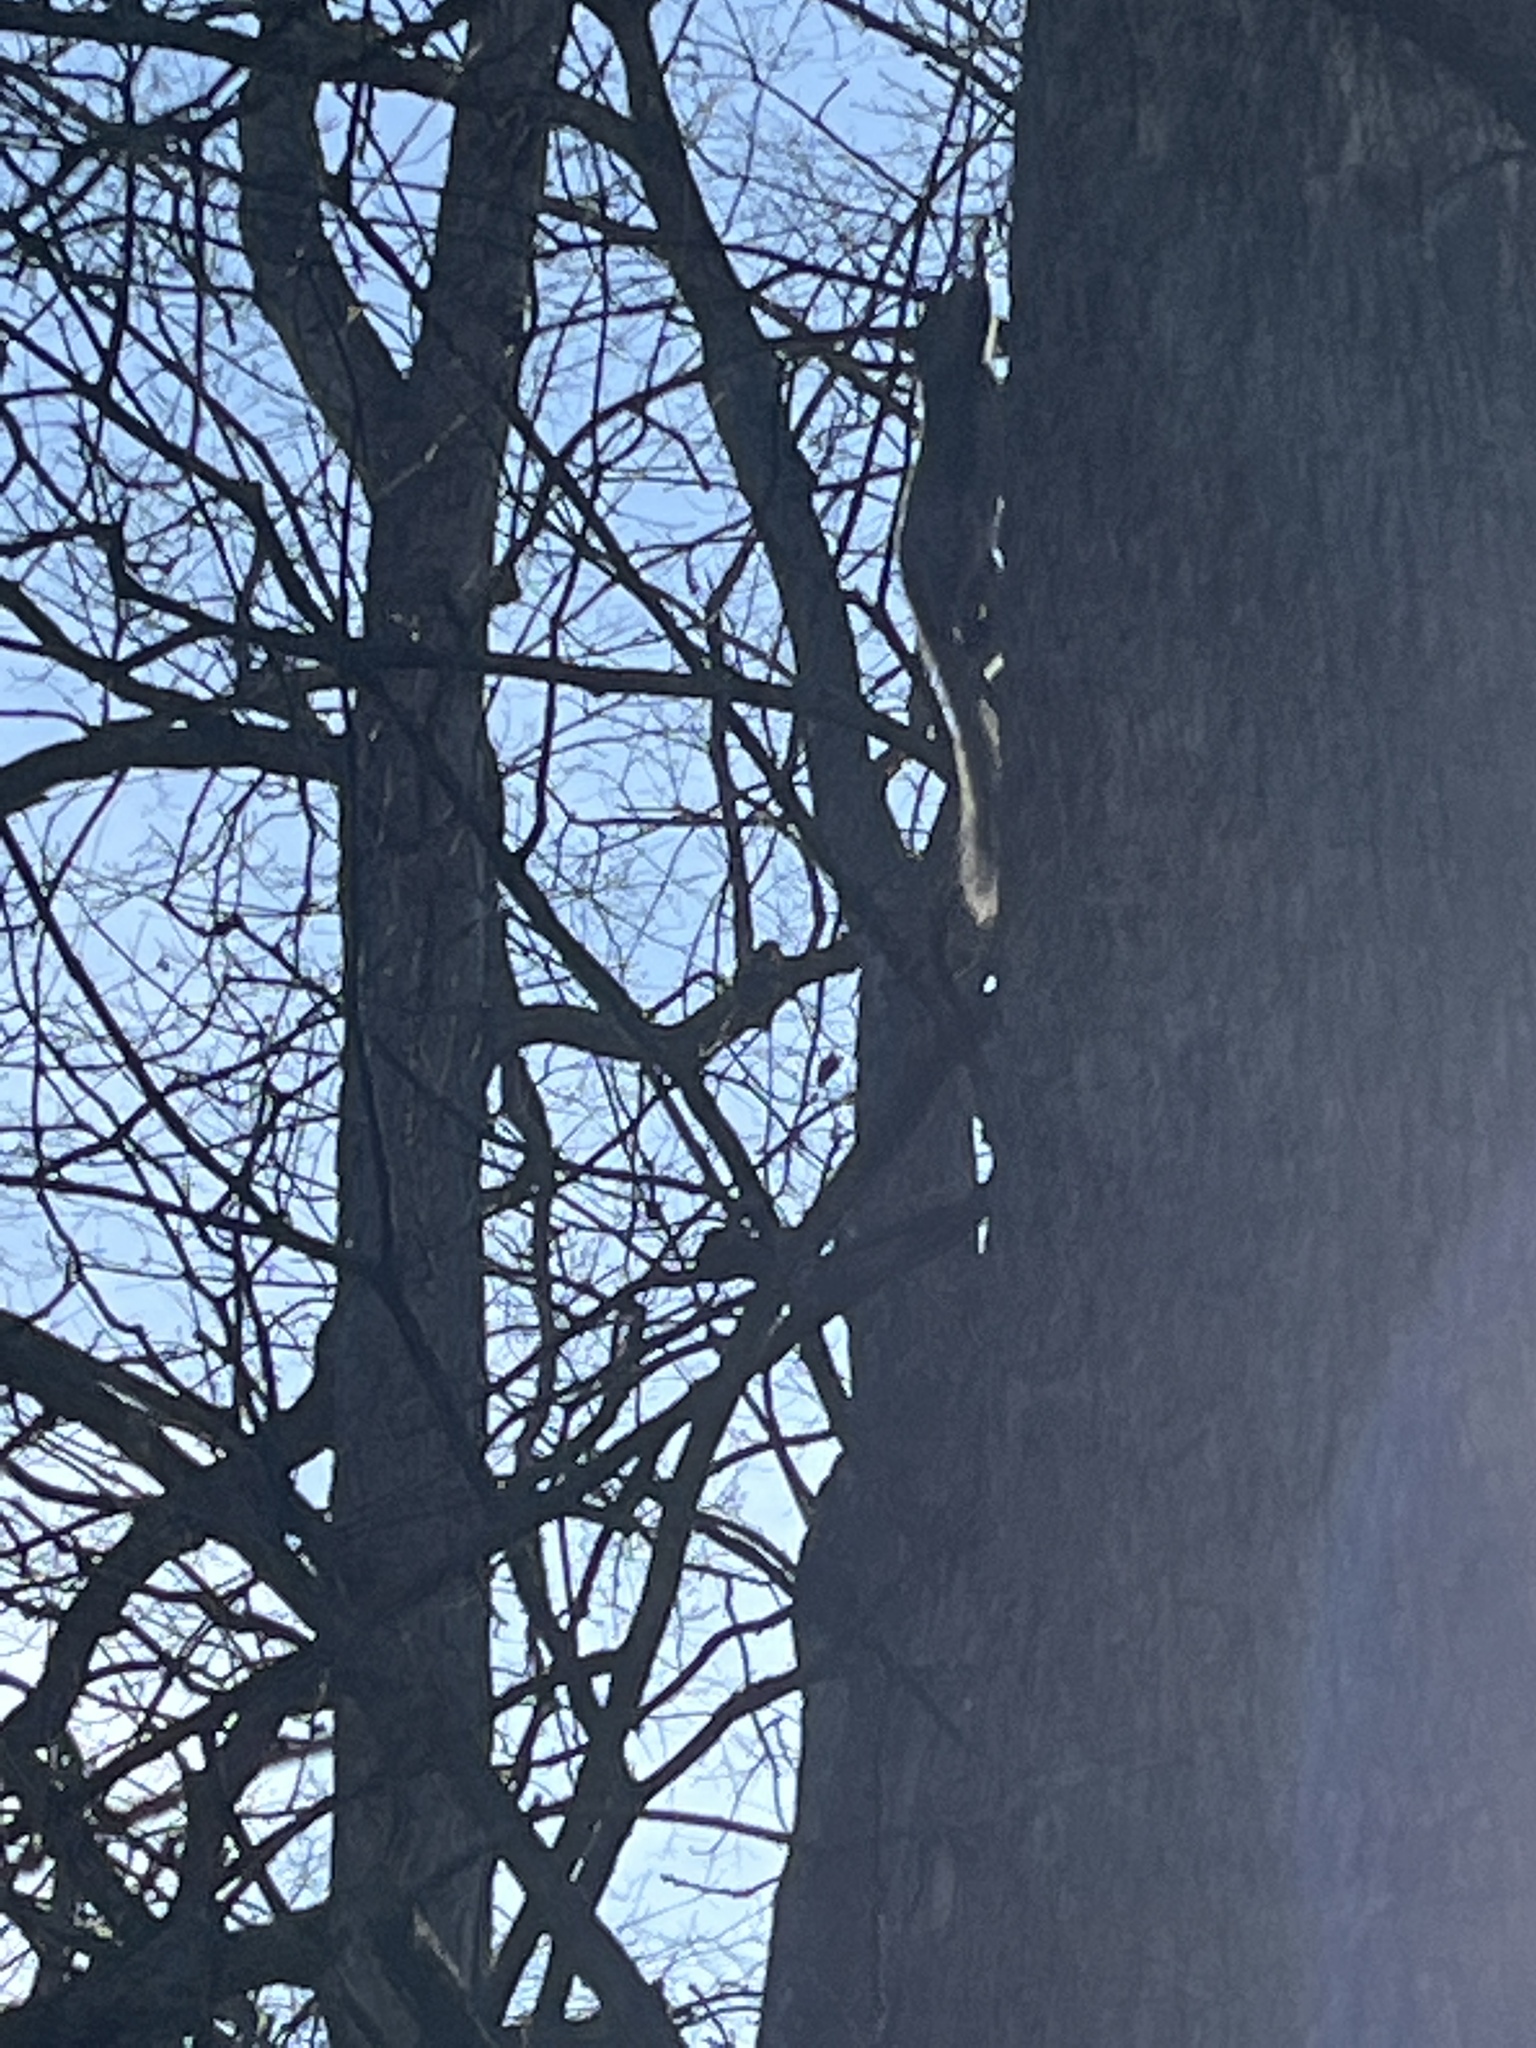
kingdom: Animalia
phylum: Chordata
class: Mammalia
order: Rodentia
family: Sciuridae
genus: Sciurus
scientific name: Sciurus carolinensis
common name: Eastern gray squirrel
